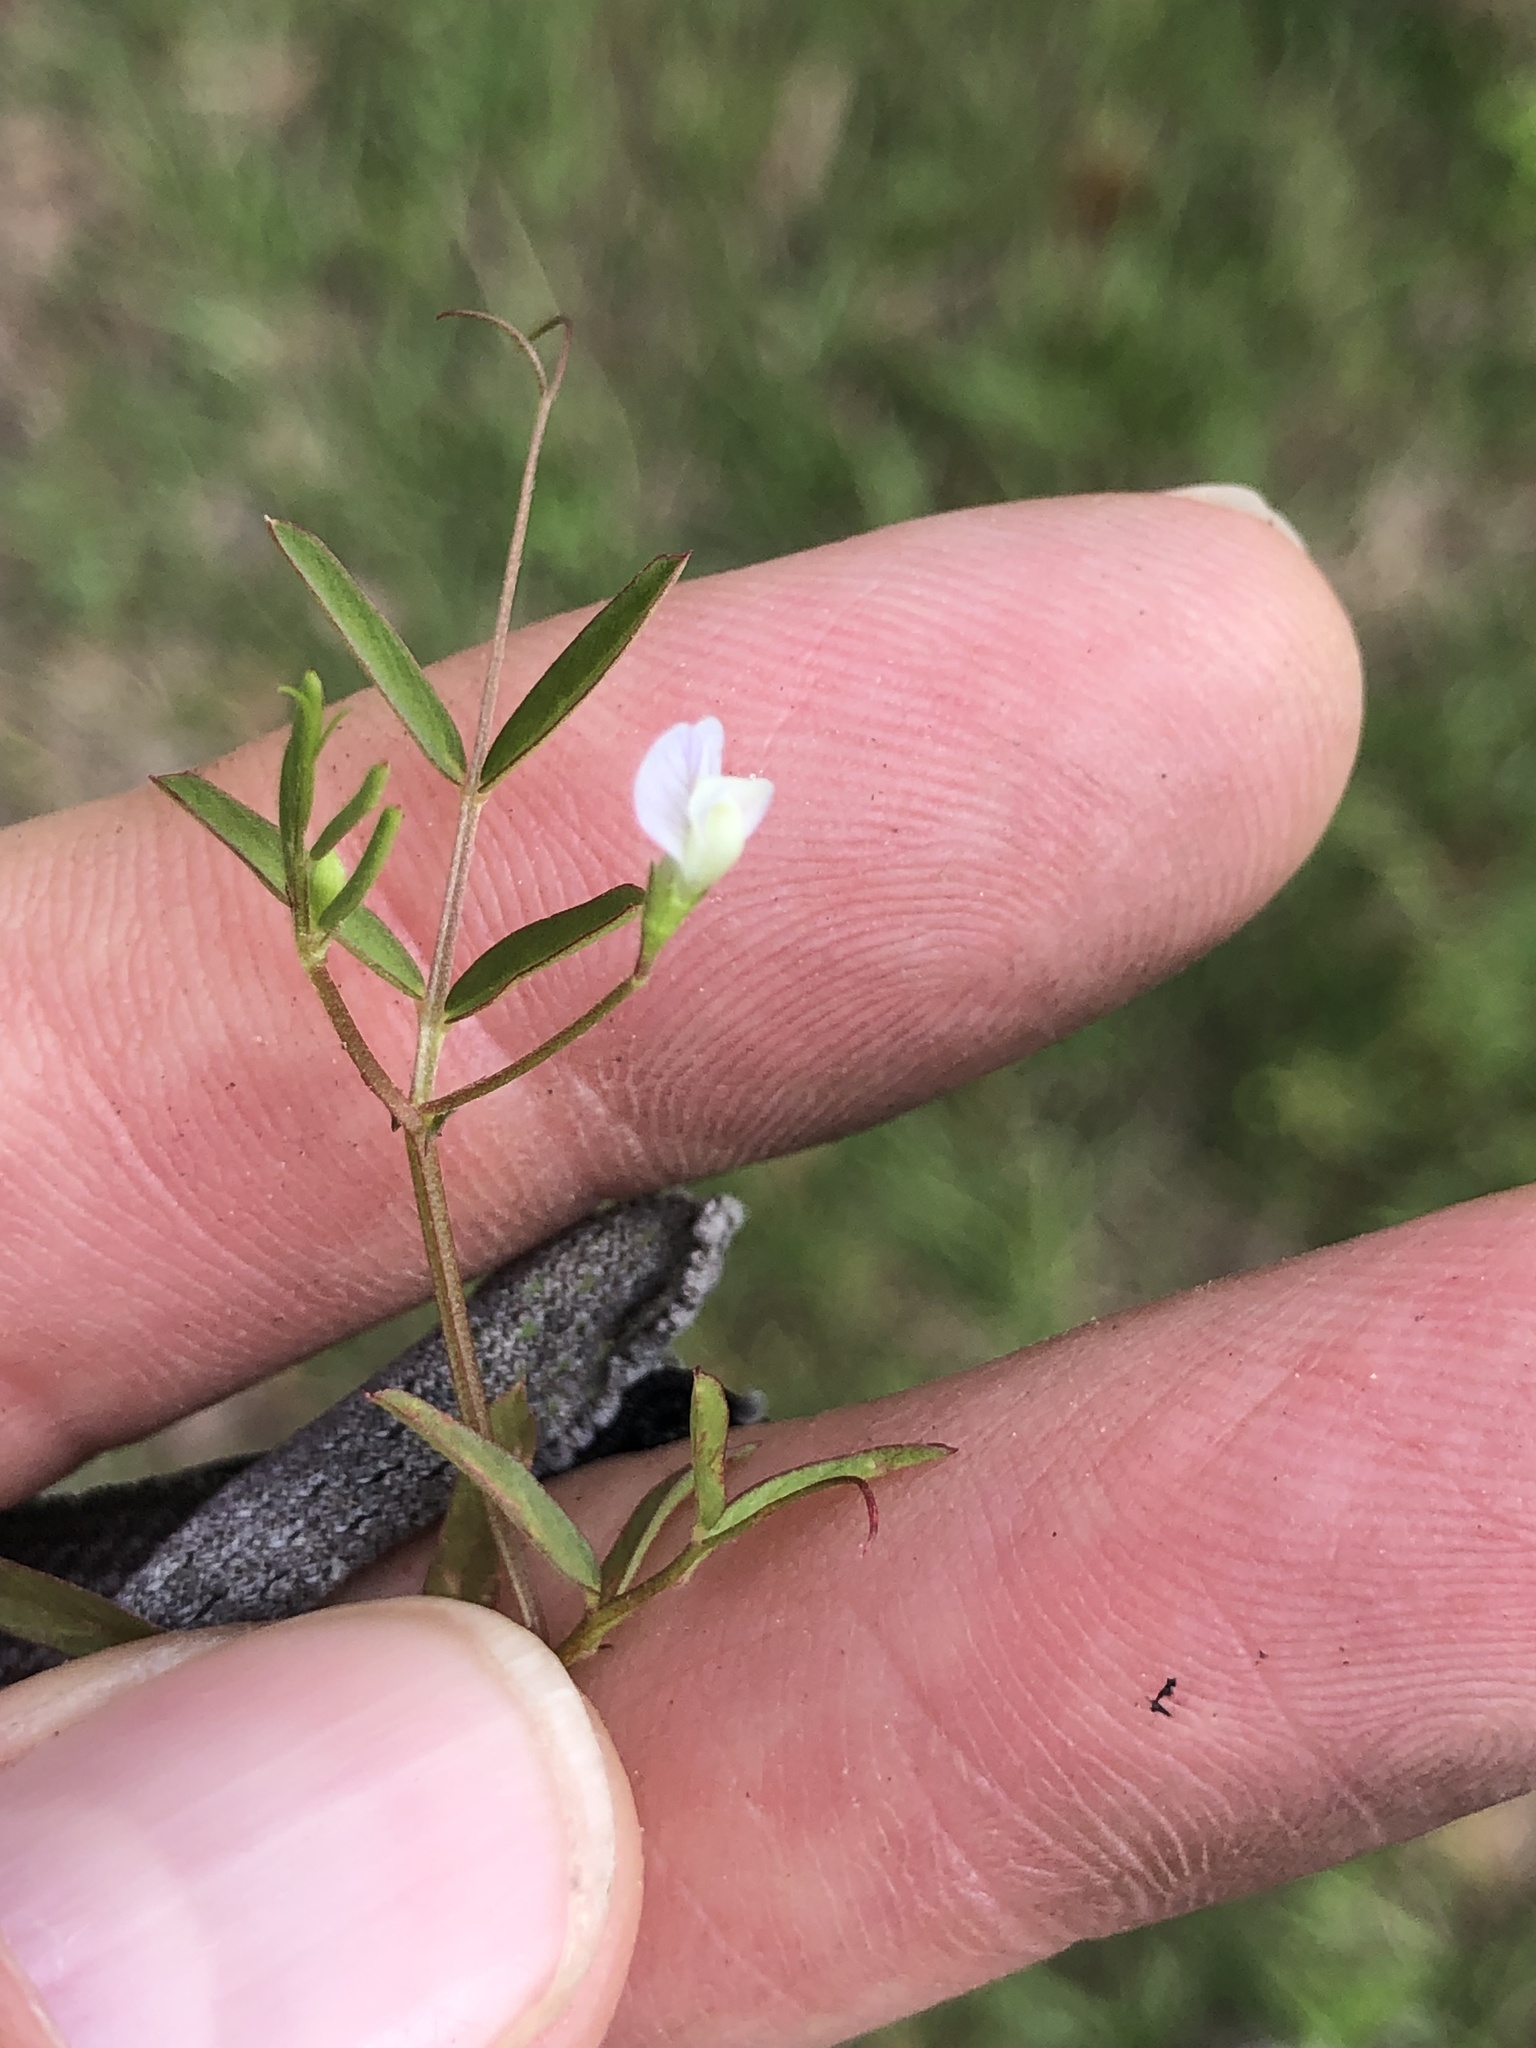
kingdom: Plantae
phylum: Tracheophyta
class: Magnoliopsida
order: Fabales
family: Fabaceae
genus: Vicia
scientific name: Vicia minutiflora
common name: Pygmy-flower vetch
